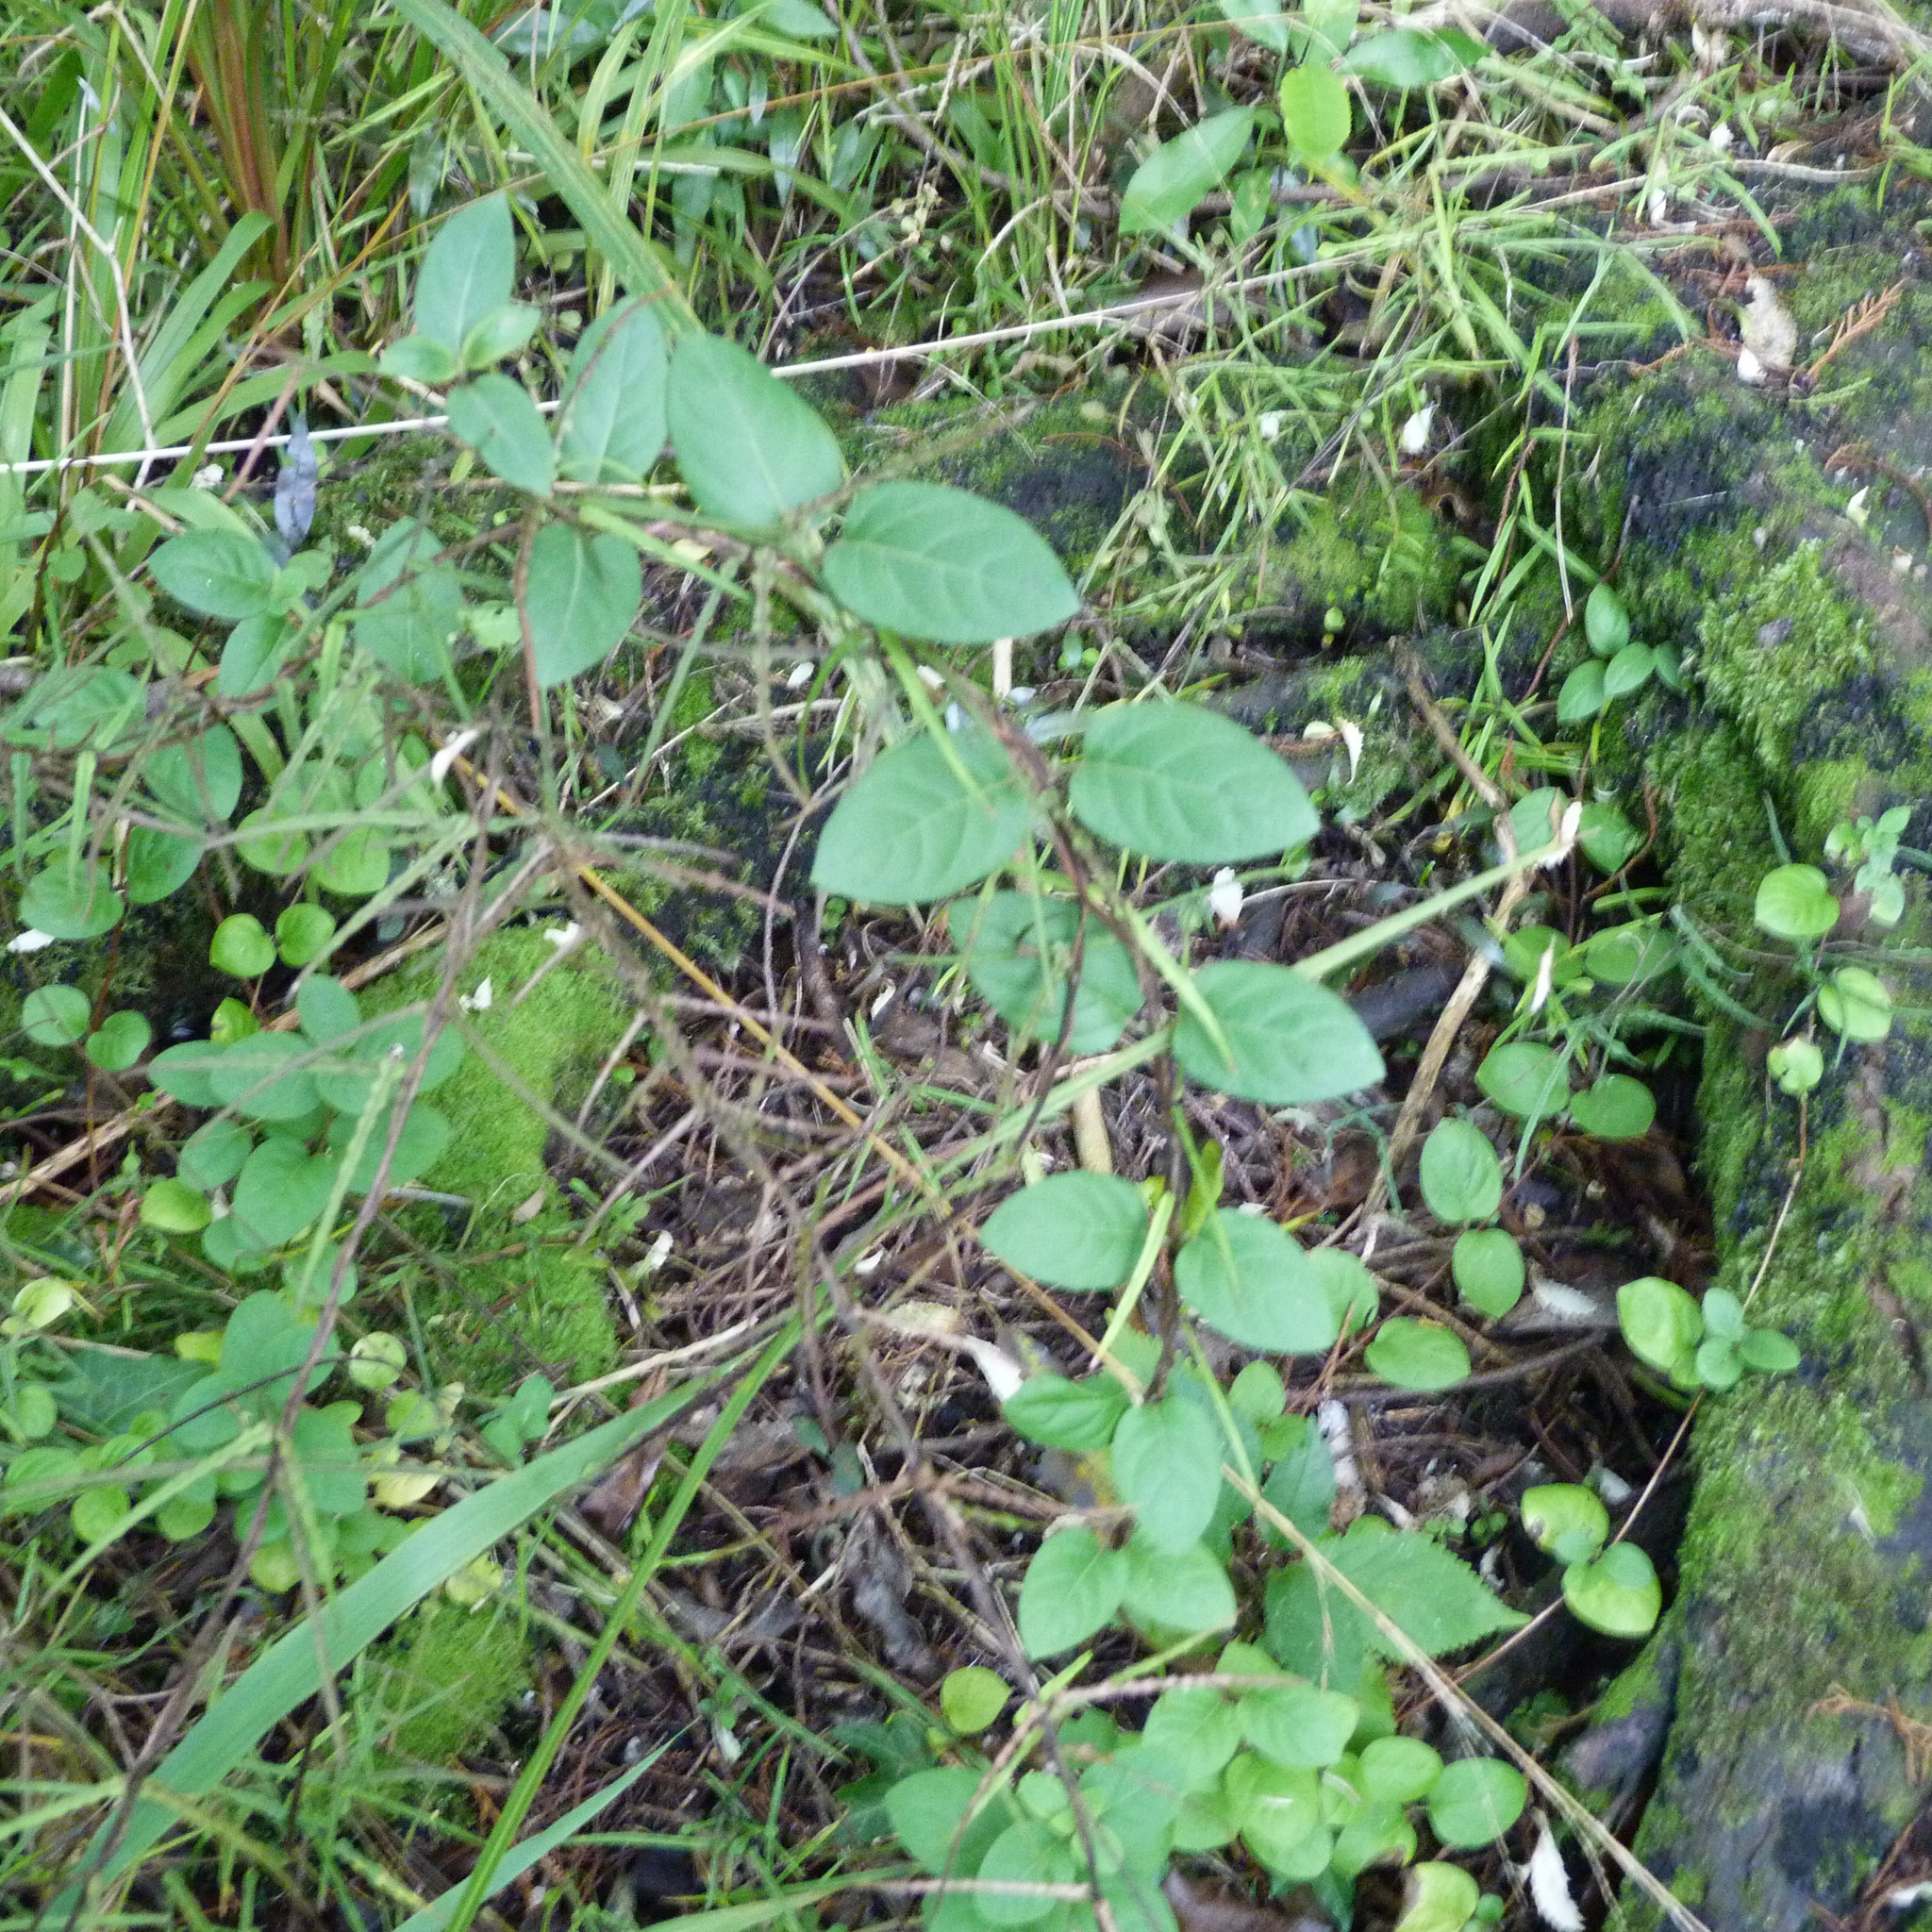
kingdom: Plantae
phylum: Tracheophyta
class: Magnoliopsida
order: Dipsacales
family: Caprifoliaceae
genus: Lonicera
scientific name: Lonicera japonica
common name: Japanese honeysuckle
